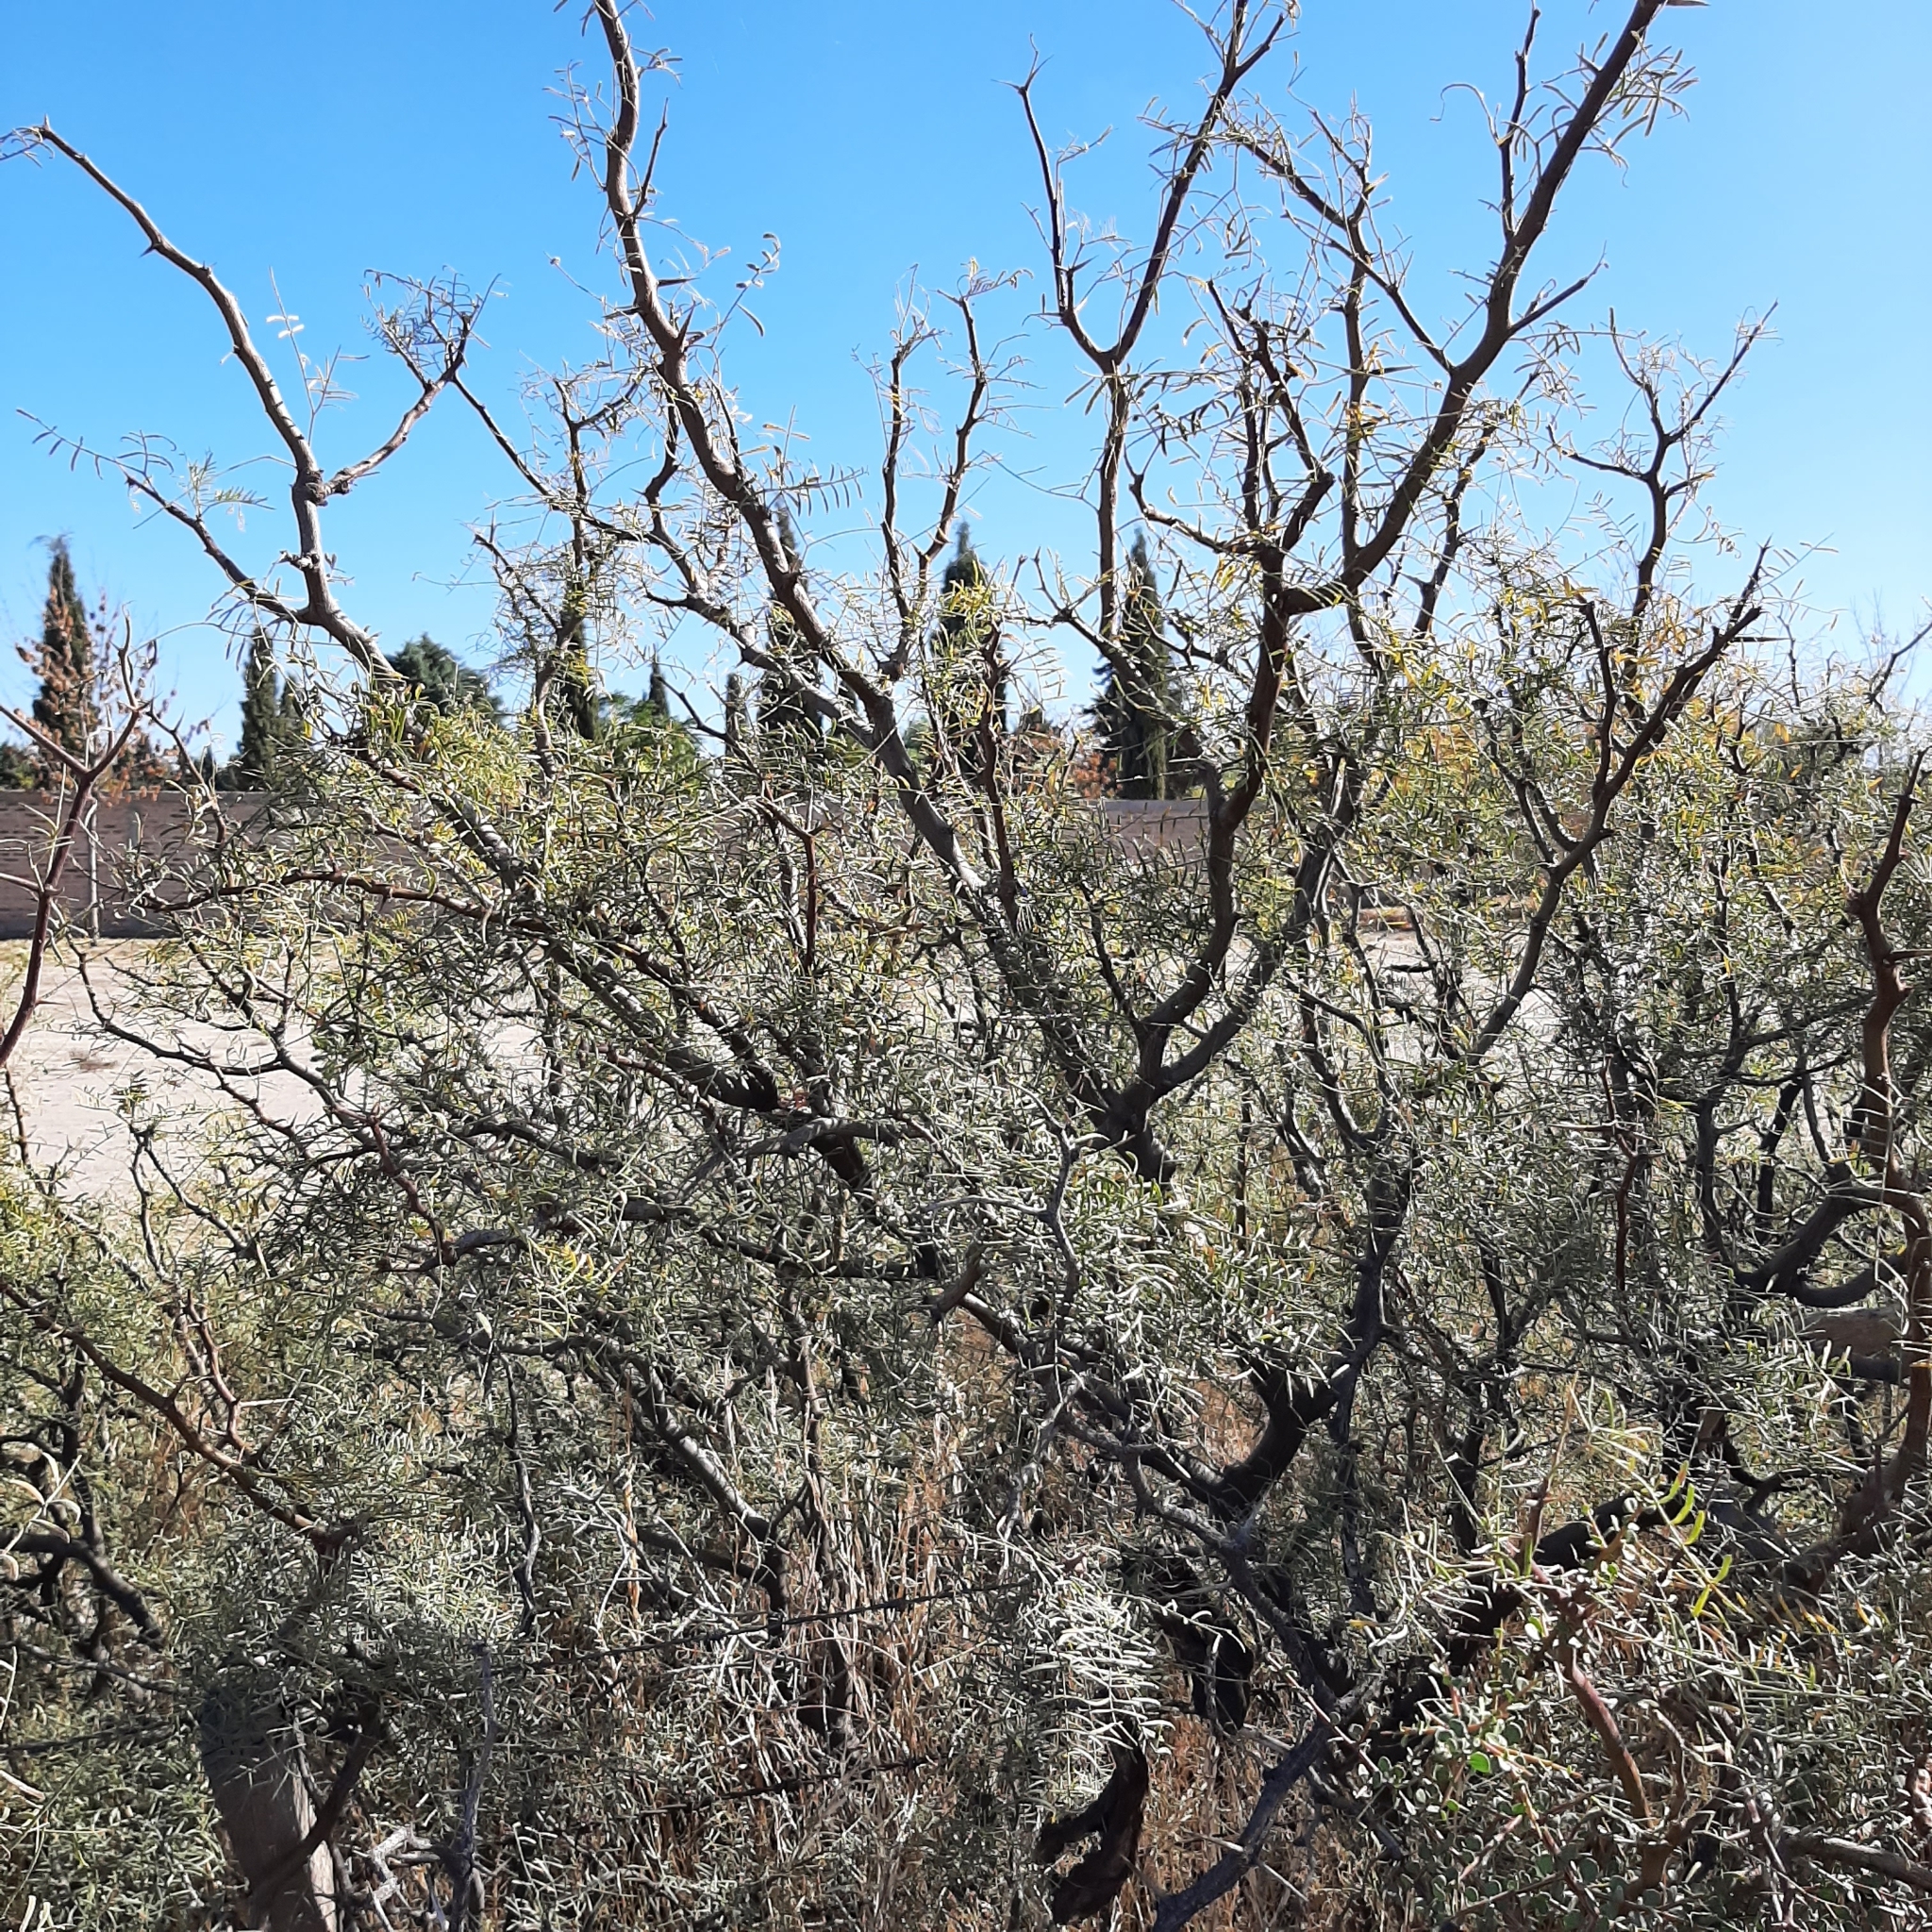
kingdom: Plantae
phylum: Tracheophyta
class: Magnoliopsida
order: Fabales
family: Fabaceae
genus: Prosopis
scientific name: Prosopis alpataco
